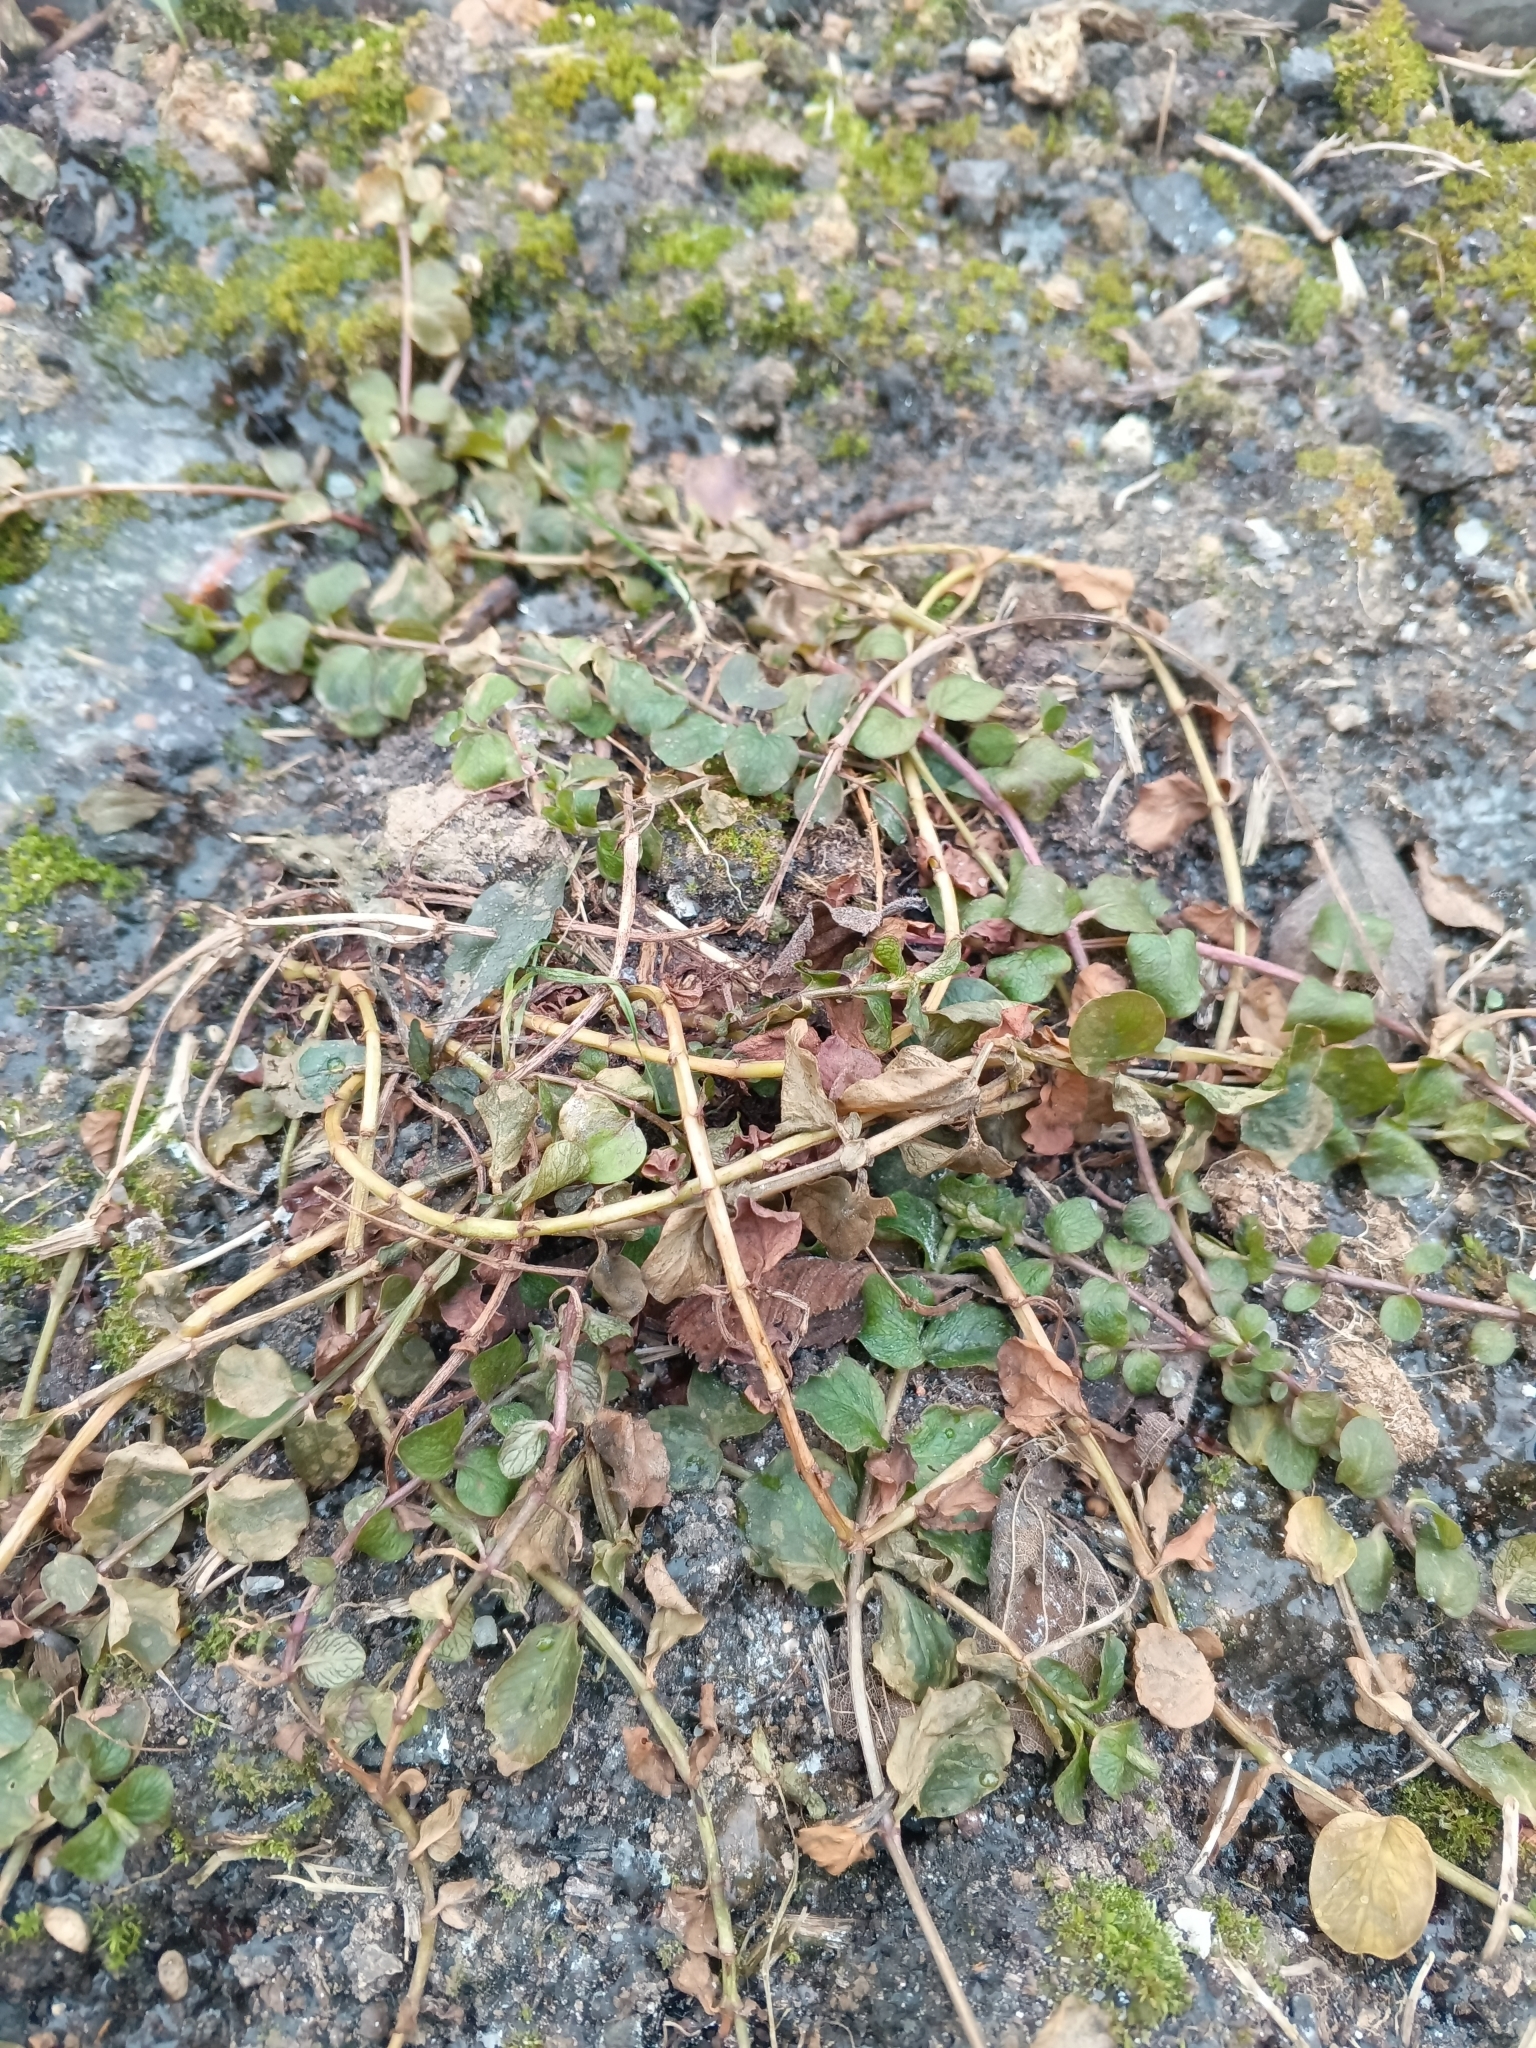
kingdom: Plantae
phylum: Tracheophyta
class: Magnoliopsida
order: Ericales
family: Primulaceae
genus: Lysimachia
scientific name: Lysimachia nummularia
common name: Moneywort
